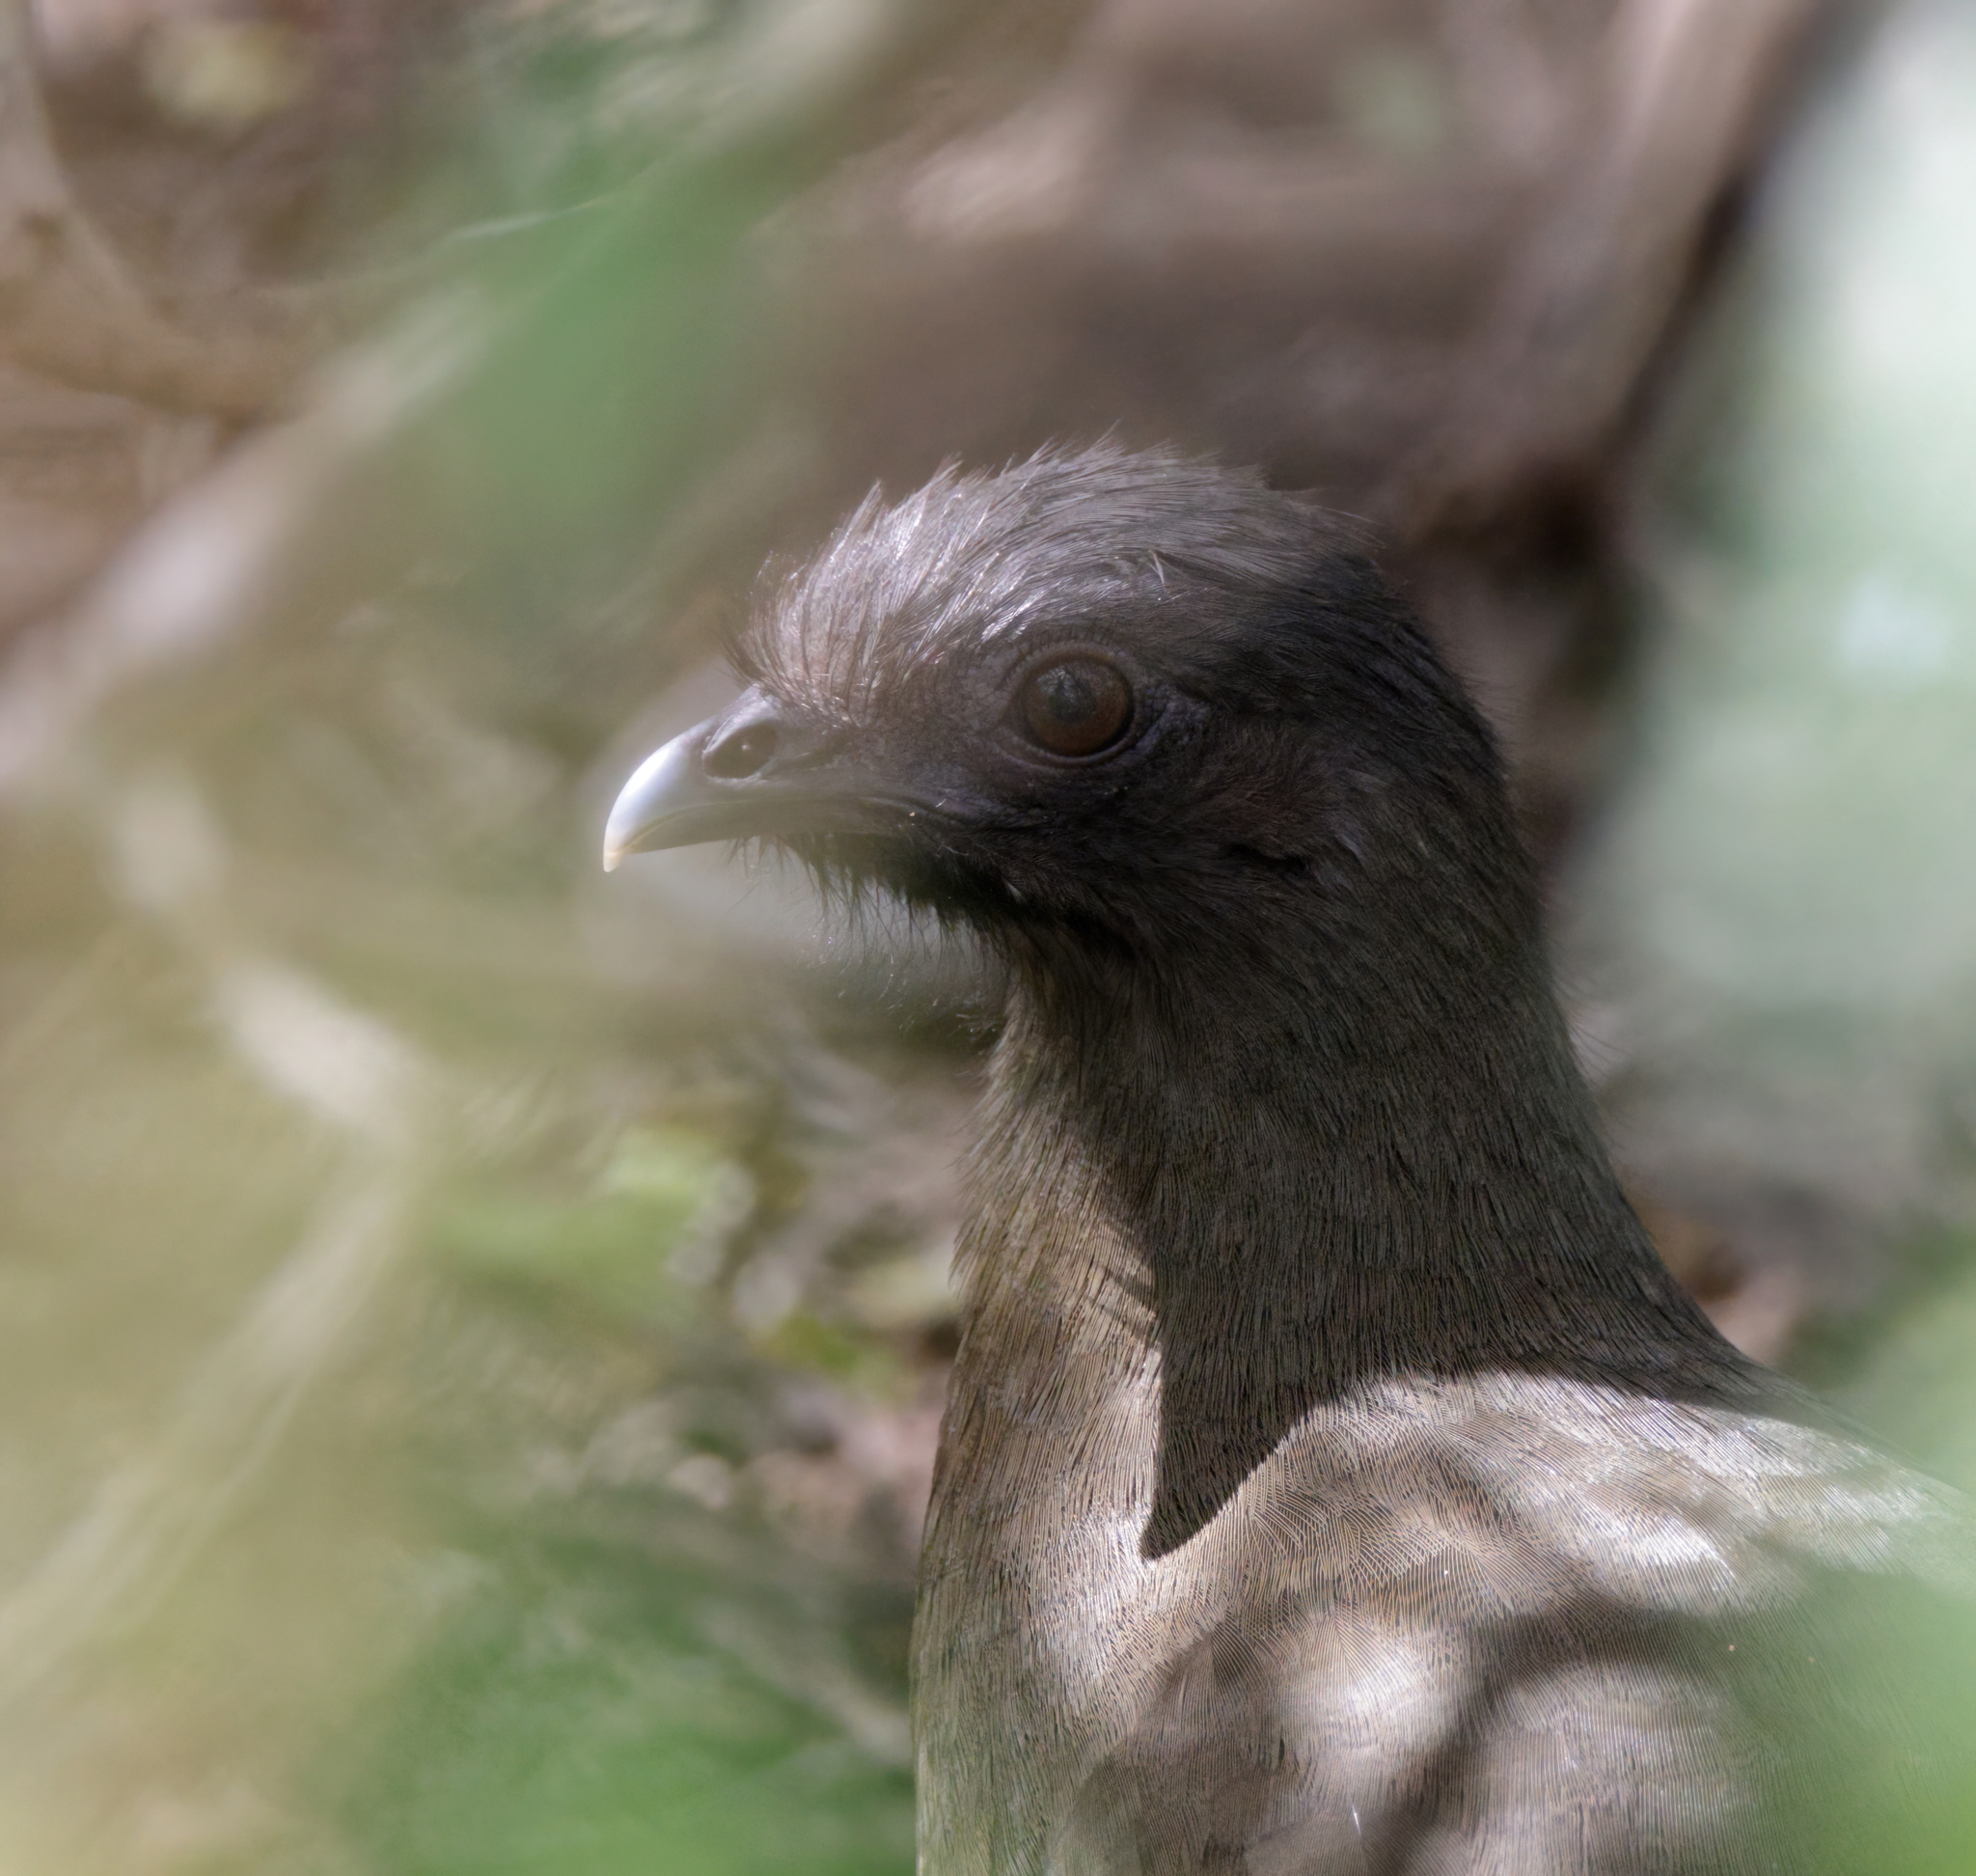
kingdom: Animalia
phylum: Chordata
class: Aves
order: Galliformes
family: Cracidae
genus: Ortalis
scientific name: Ortalis vetula
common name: Plain chachalaca
